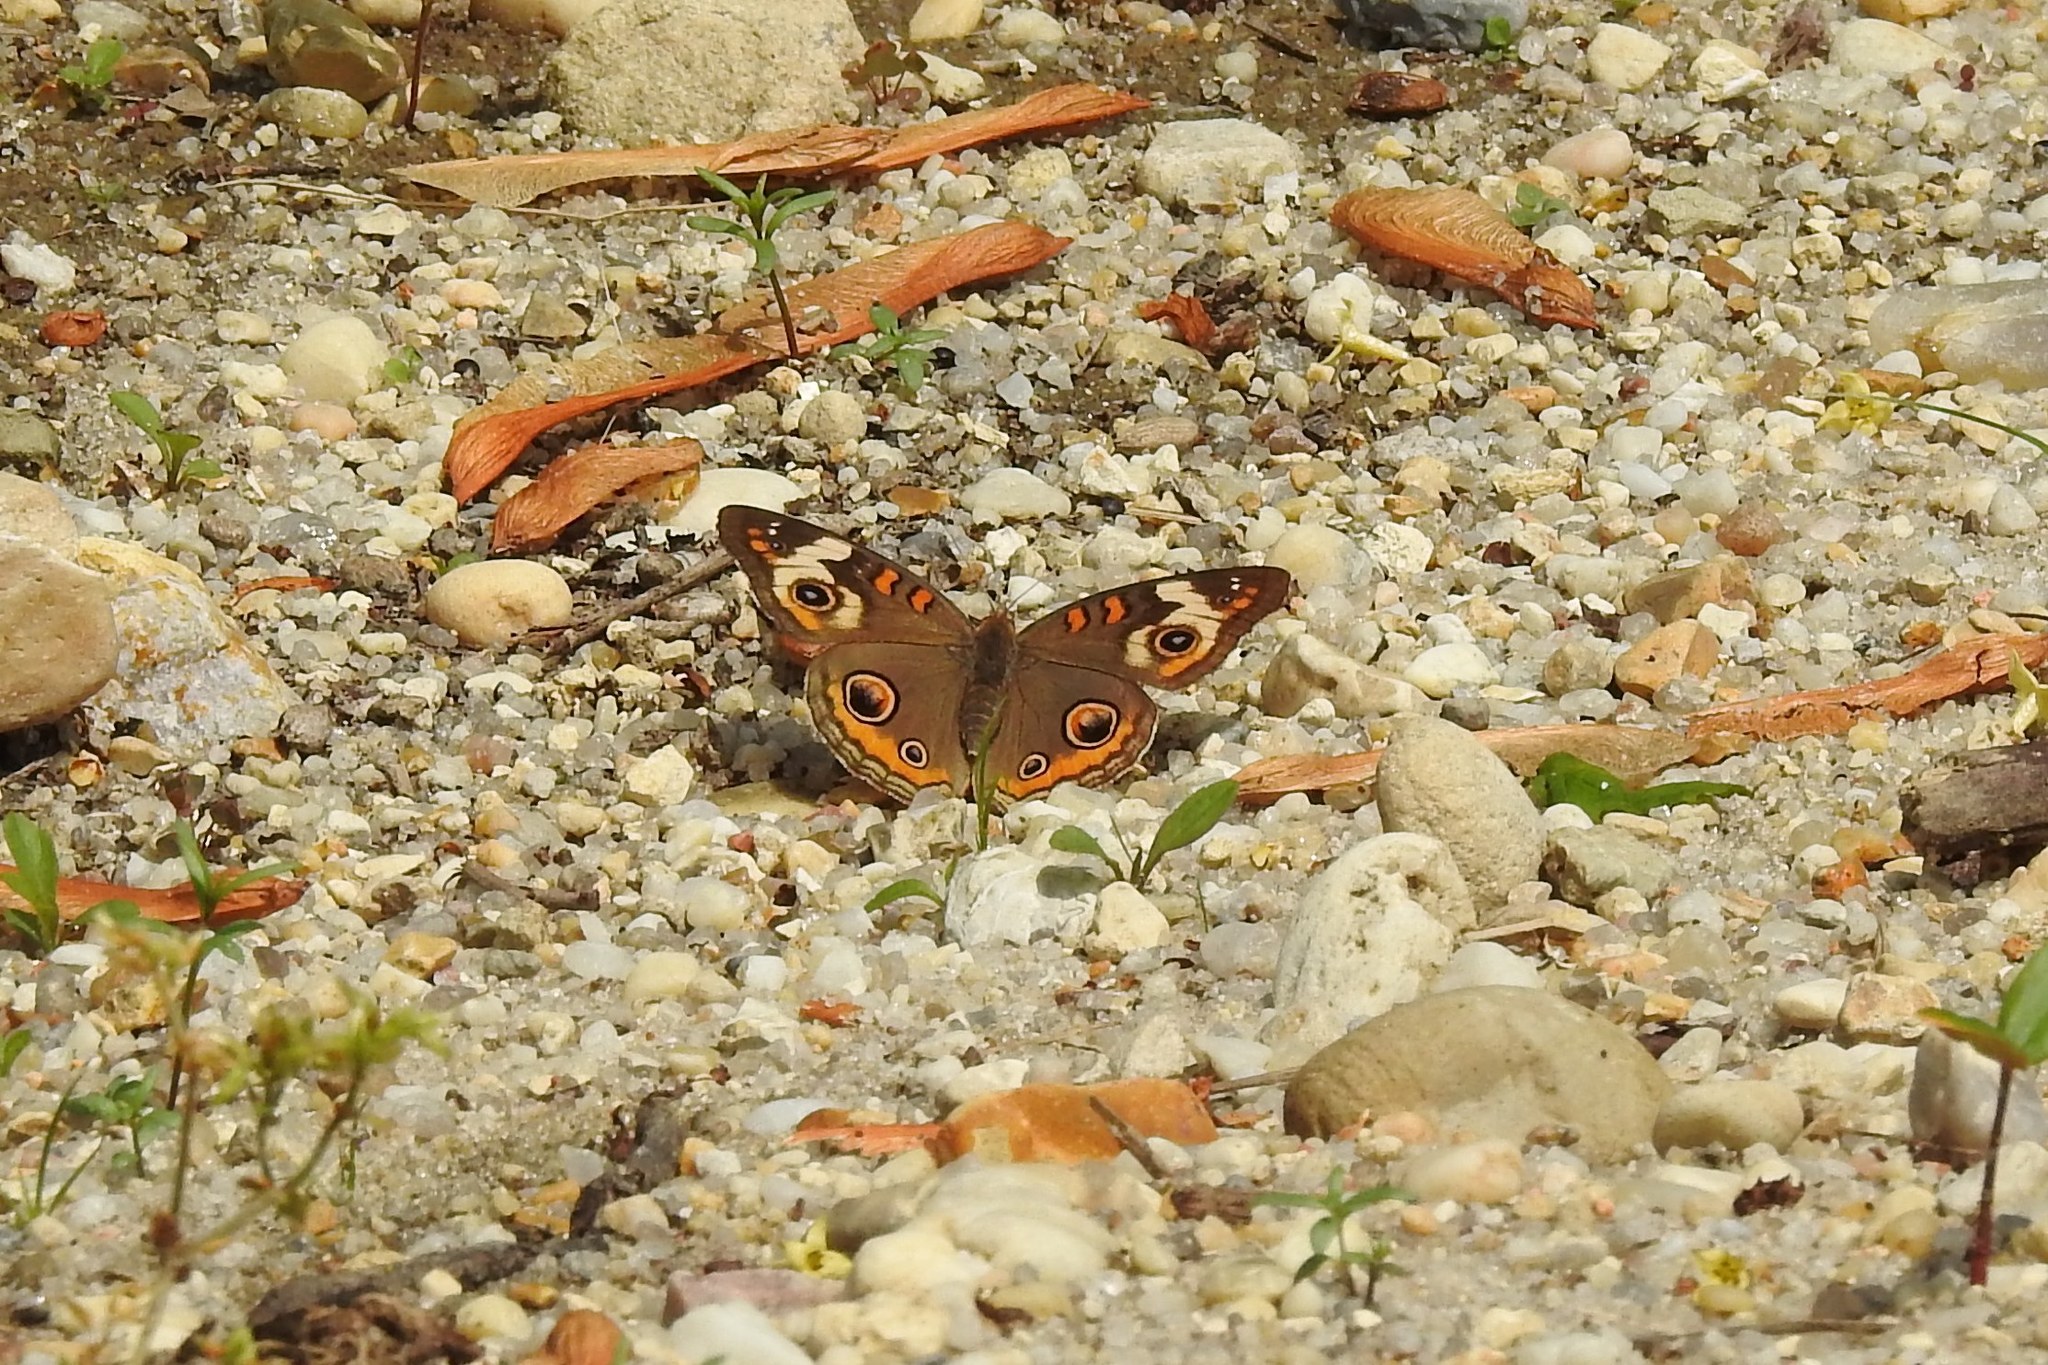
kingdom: Animalia
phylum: Arthropoda
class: Insecta
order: Lepidoptera
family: Nymphalidae
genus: Junonia
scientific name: Junonia coenia
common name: Common buckeye
